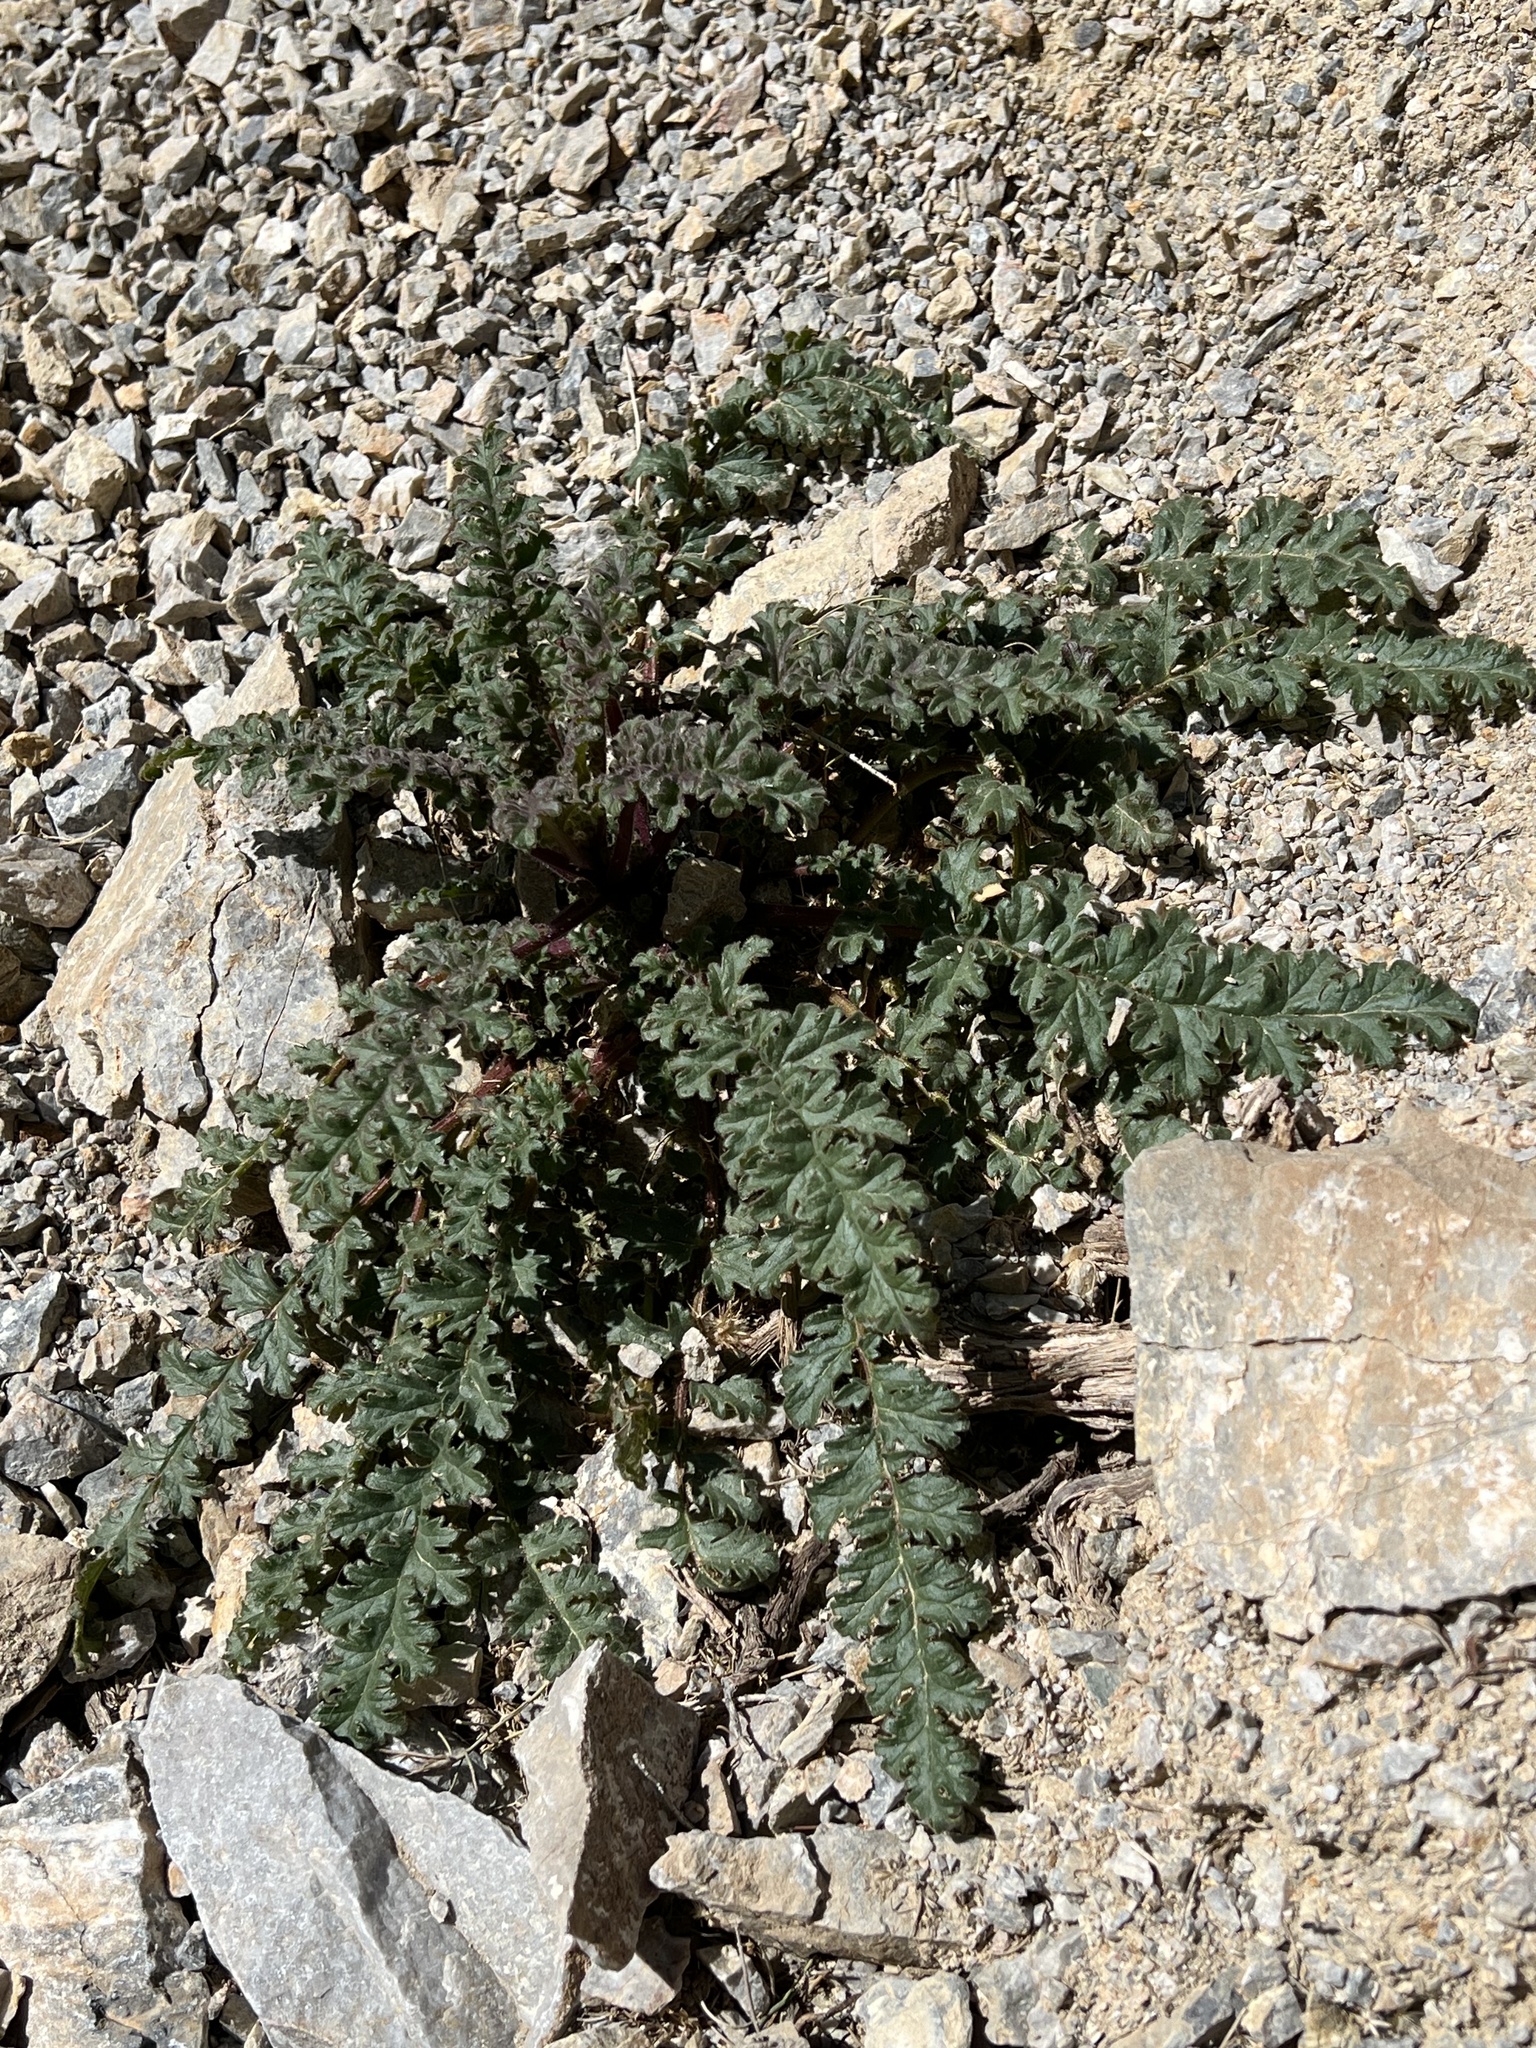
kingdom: Plantae
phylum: Tracheophyta
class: Magnoliopsida
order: Boraginales
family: Hydrophyllaceae
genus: Phacelia
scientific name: Phacelia crenulata
